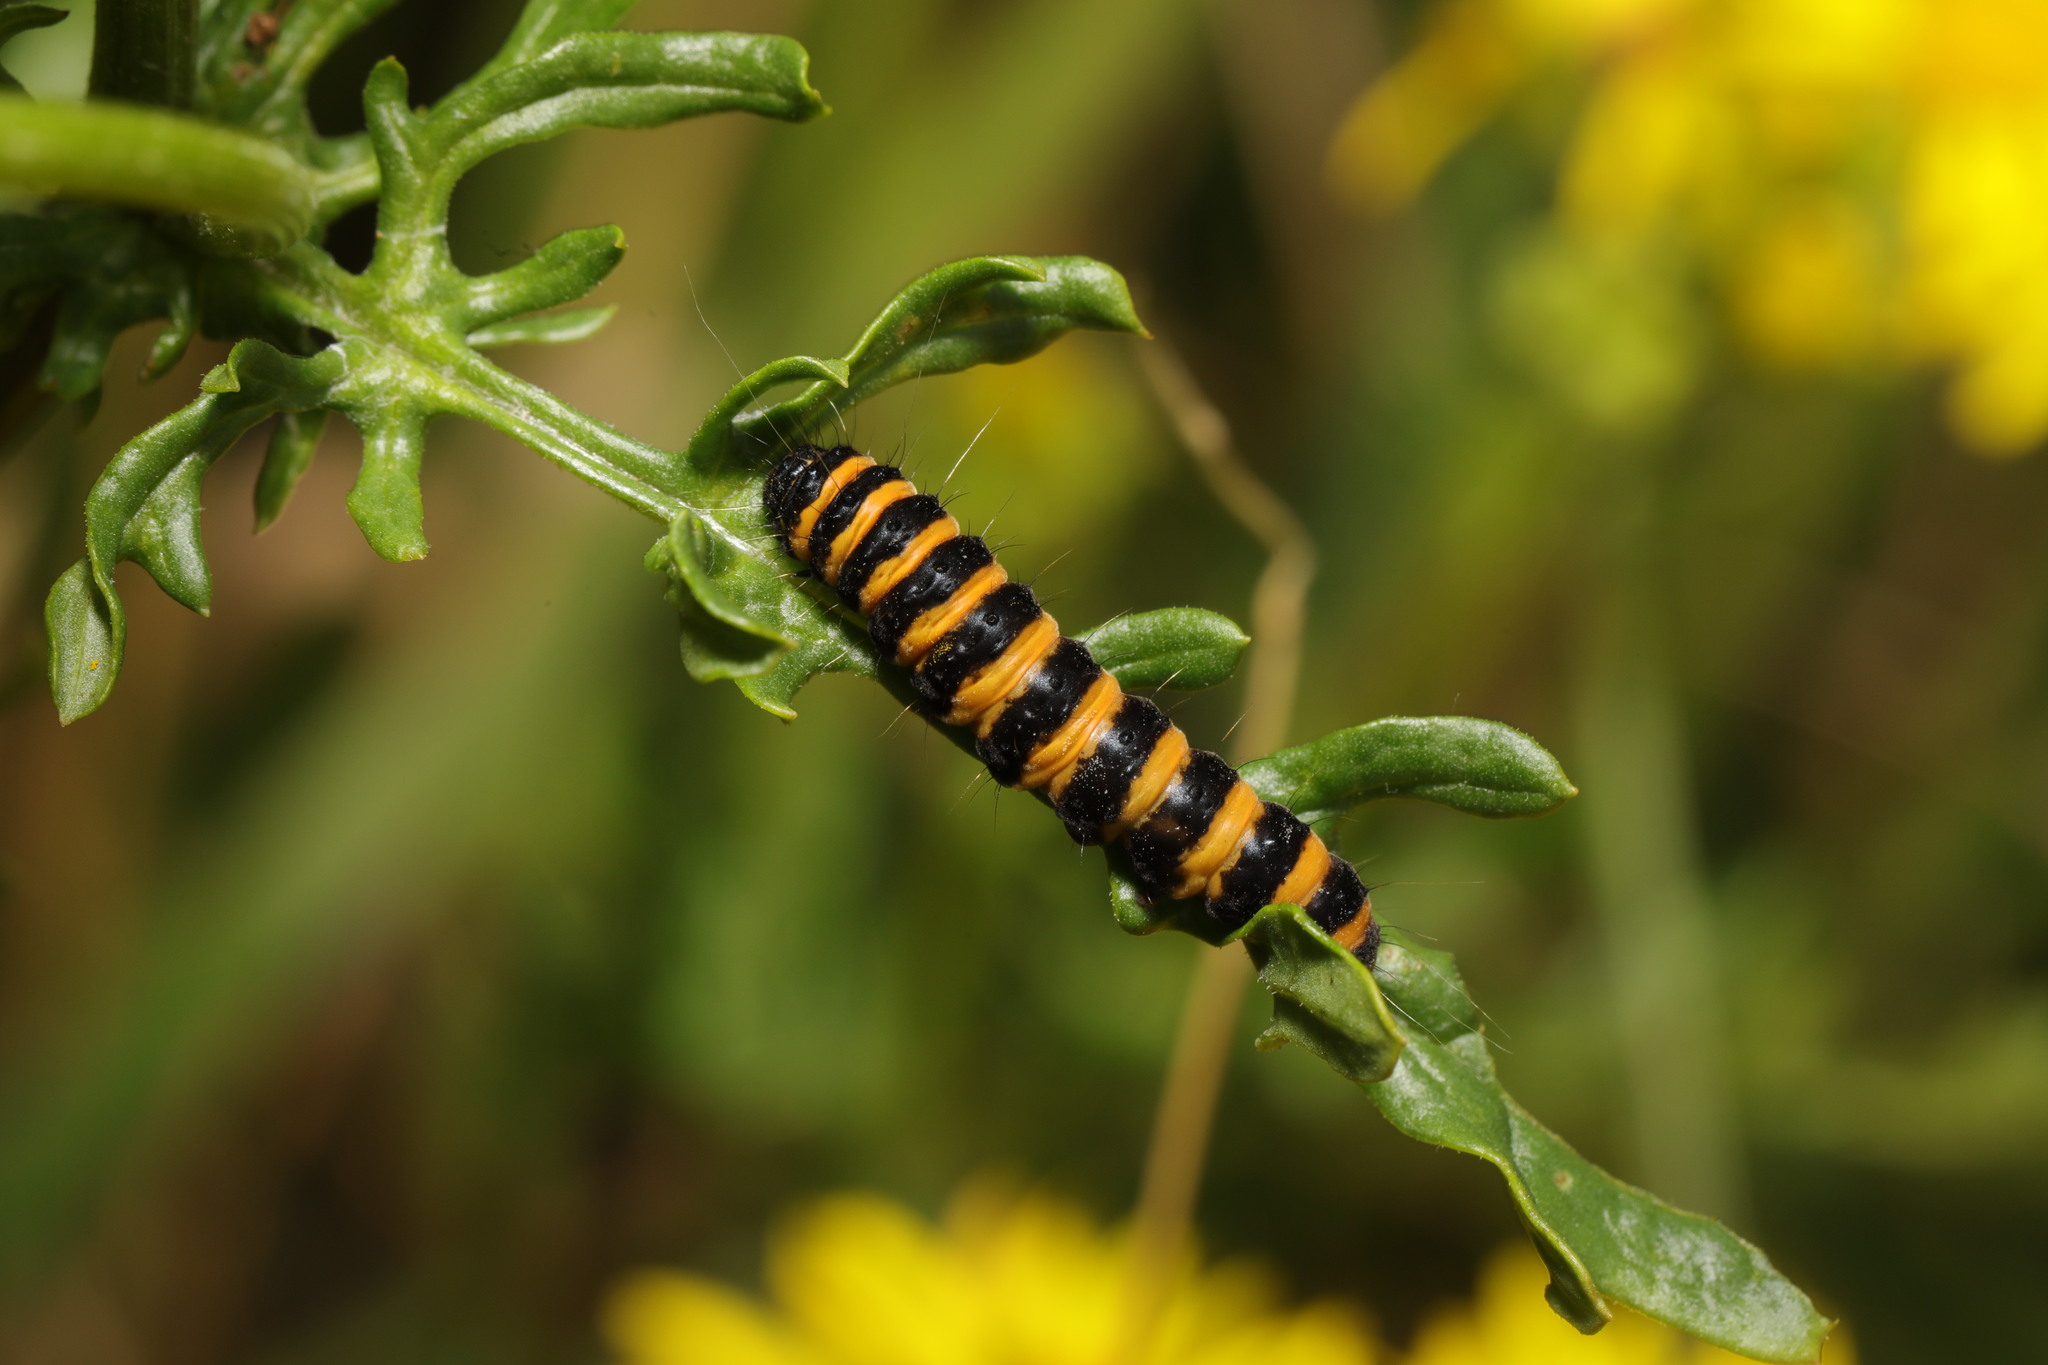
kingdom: Animalia
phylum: Arthropoda
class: Insecta
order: Lepidoptera
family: Erebidae
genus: Tyria
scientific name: Tyria jacobaeae
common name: Cinnabar
